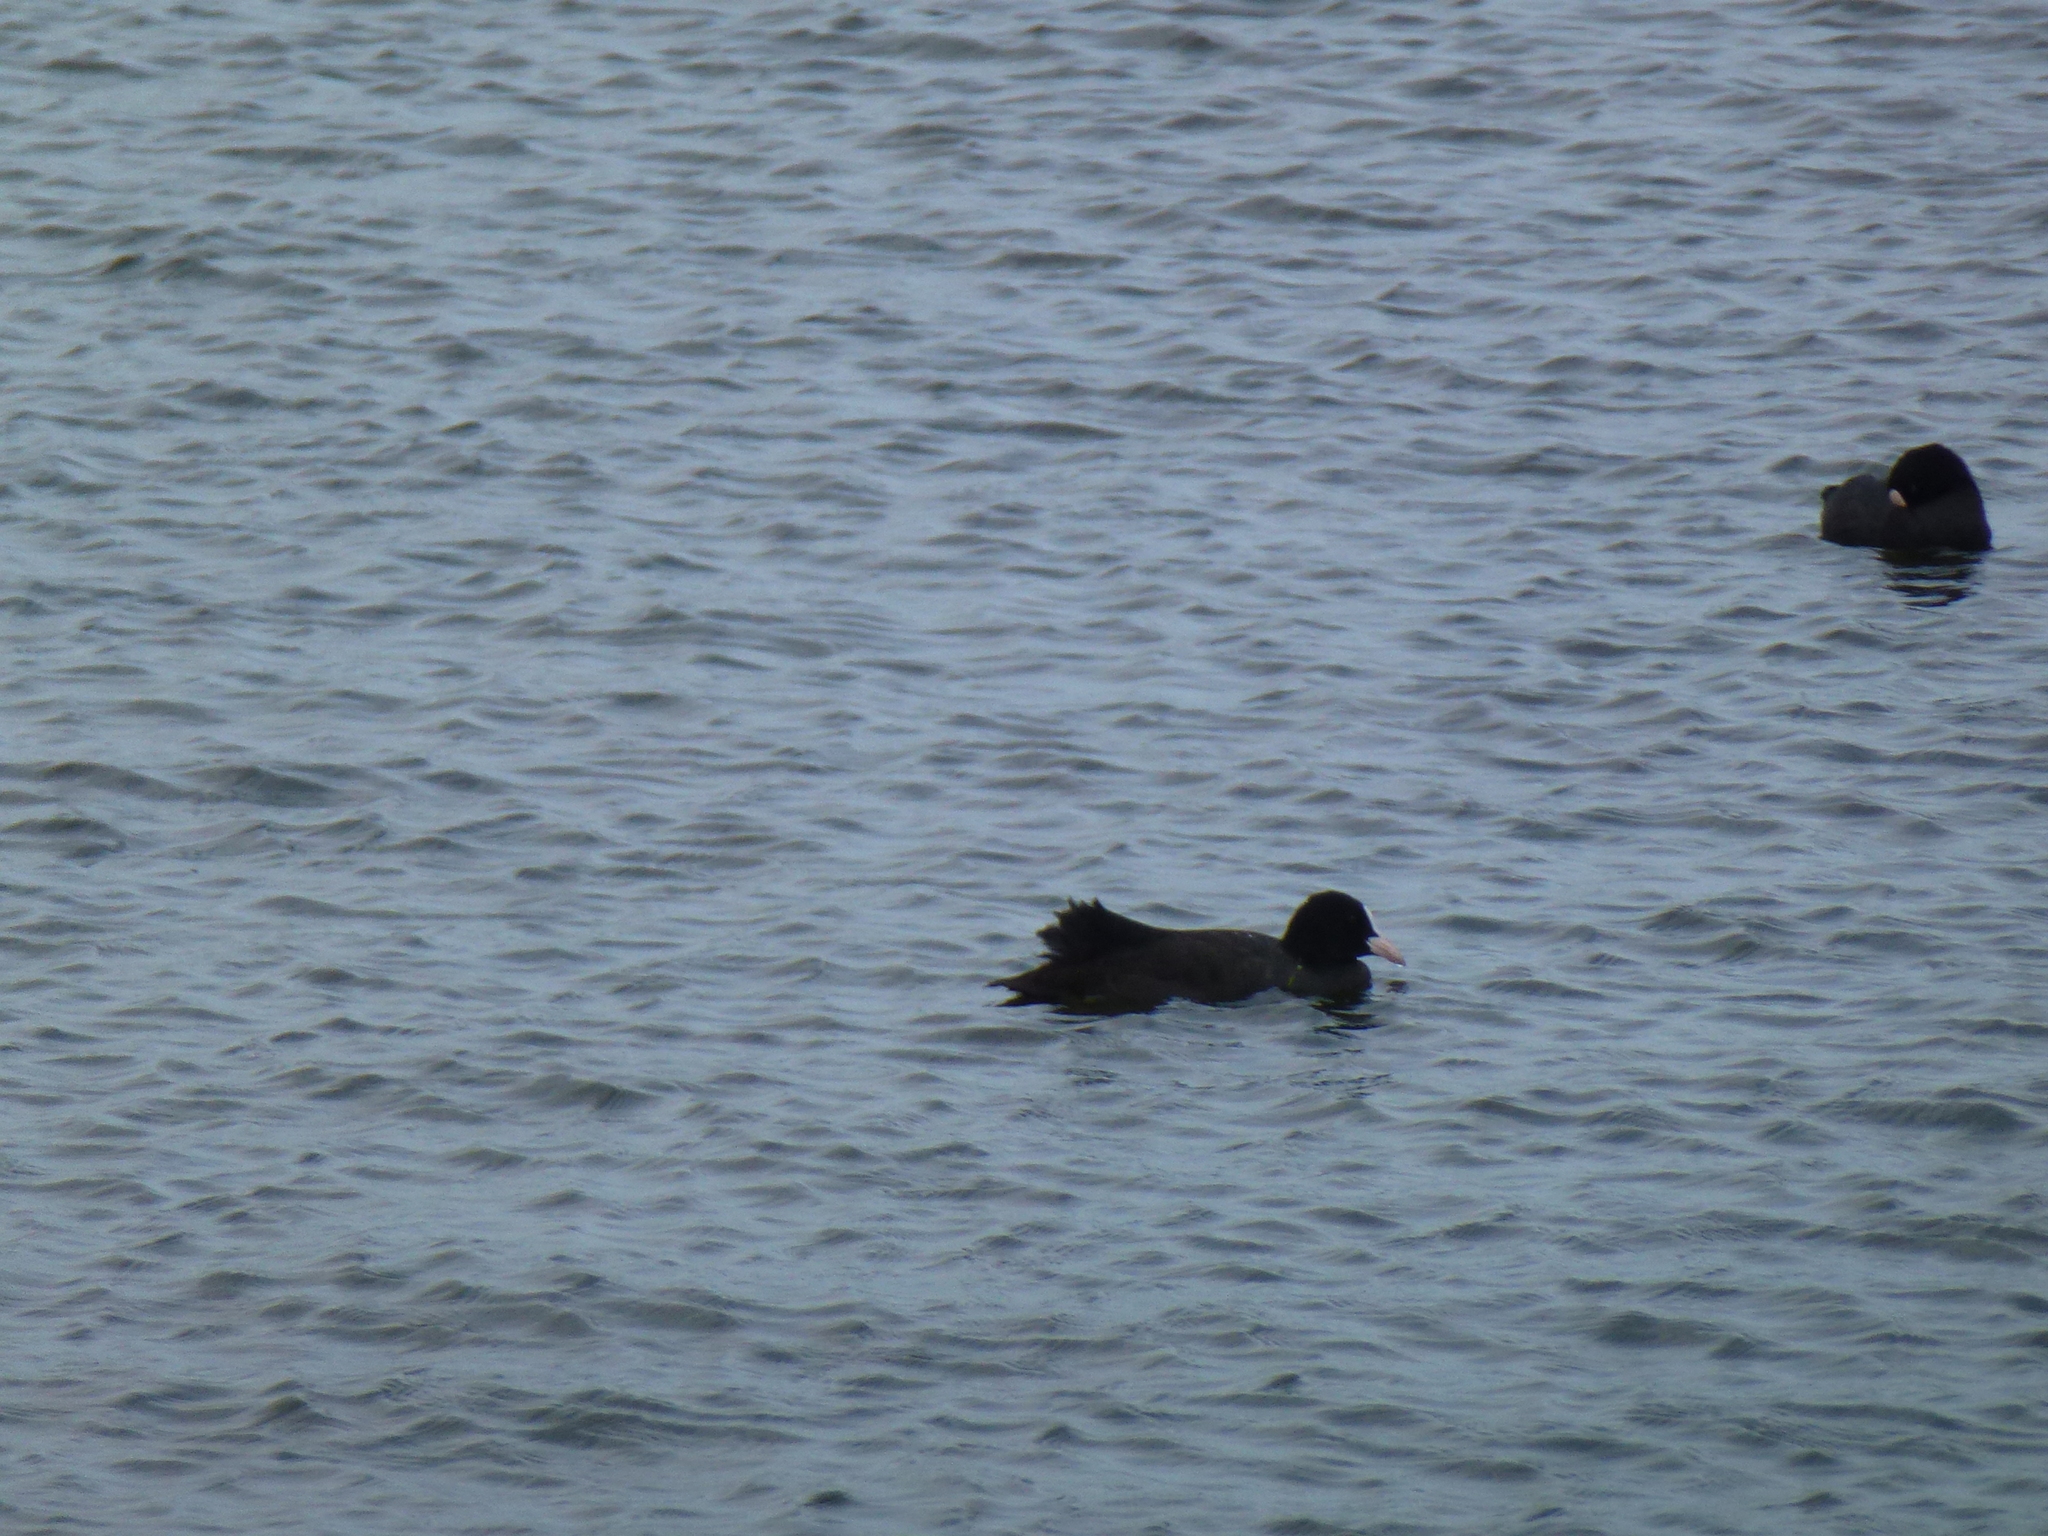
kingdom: Animalia
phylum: Chordata
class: Aves
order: Gruiformes
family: Rallidae
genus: Fulica
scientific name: Fulica atra
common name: Eurasian coot
